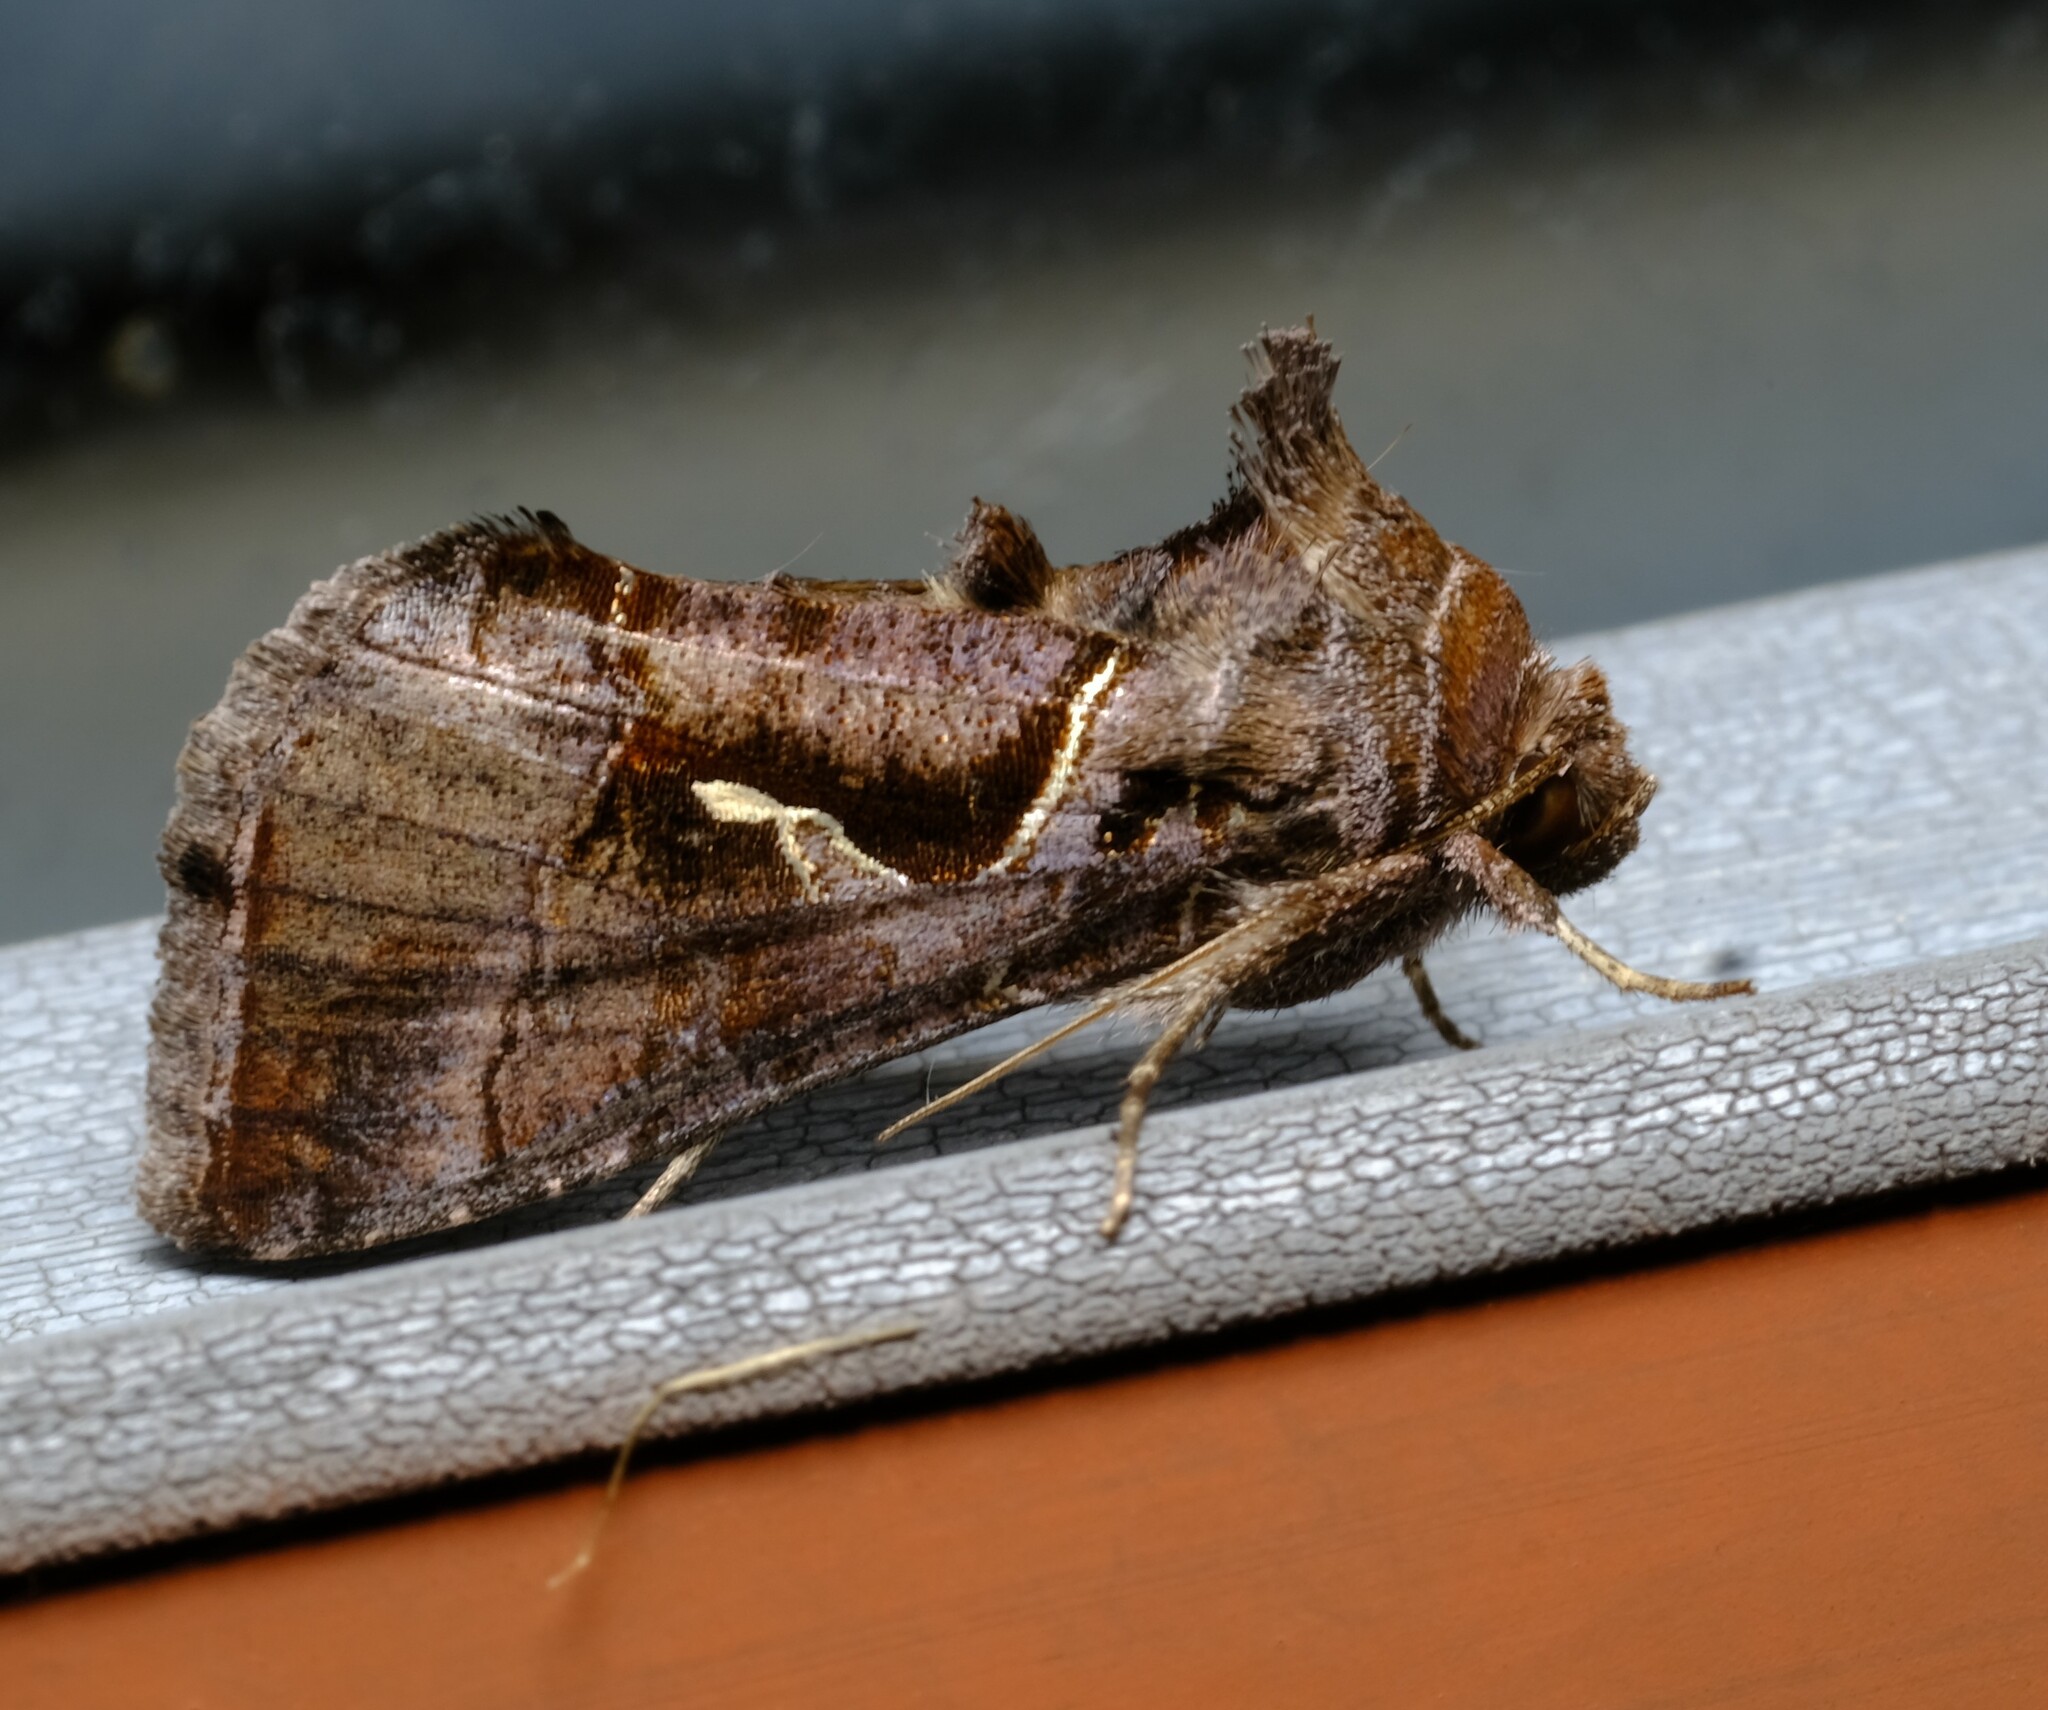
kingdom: Animalia
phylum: Arthropoda
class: Insecta
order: Lepidoptera
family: Noctuidae
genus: Chrysodeixis
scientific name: Chrysodeixis subsidens
